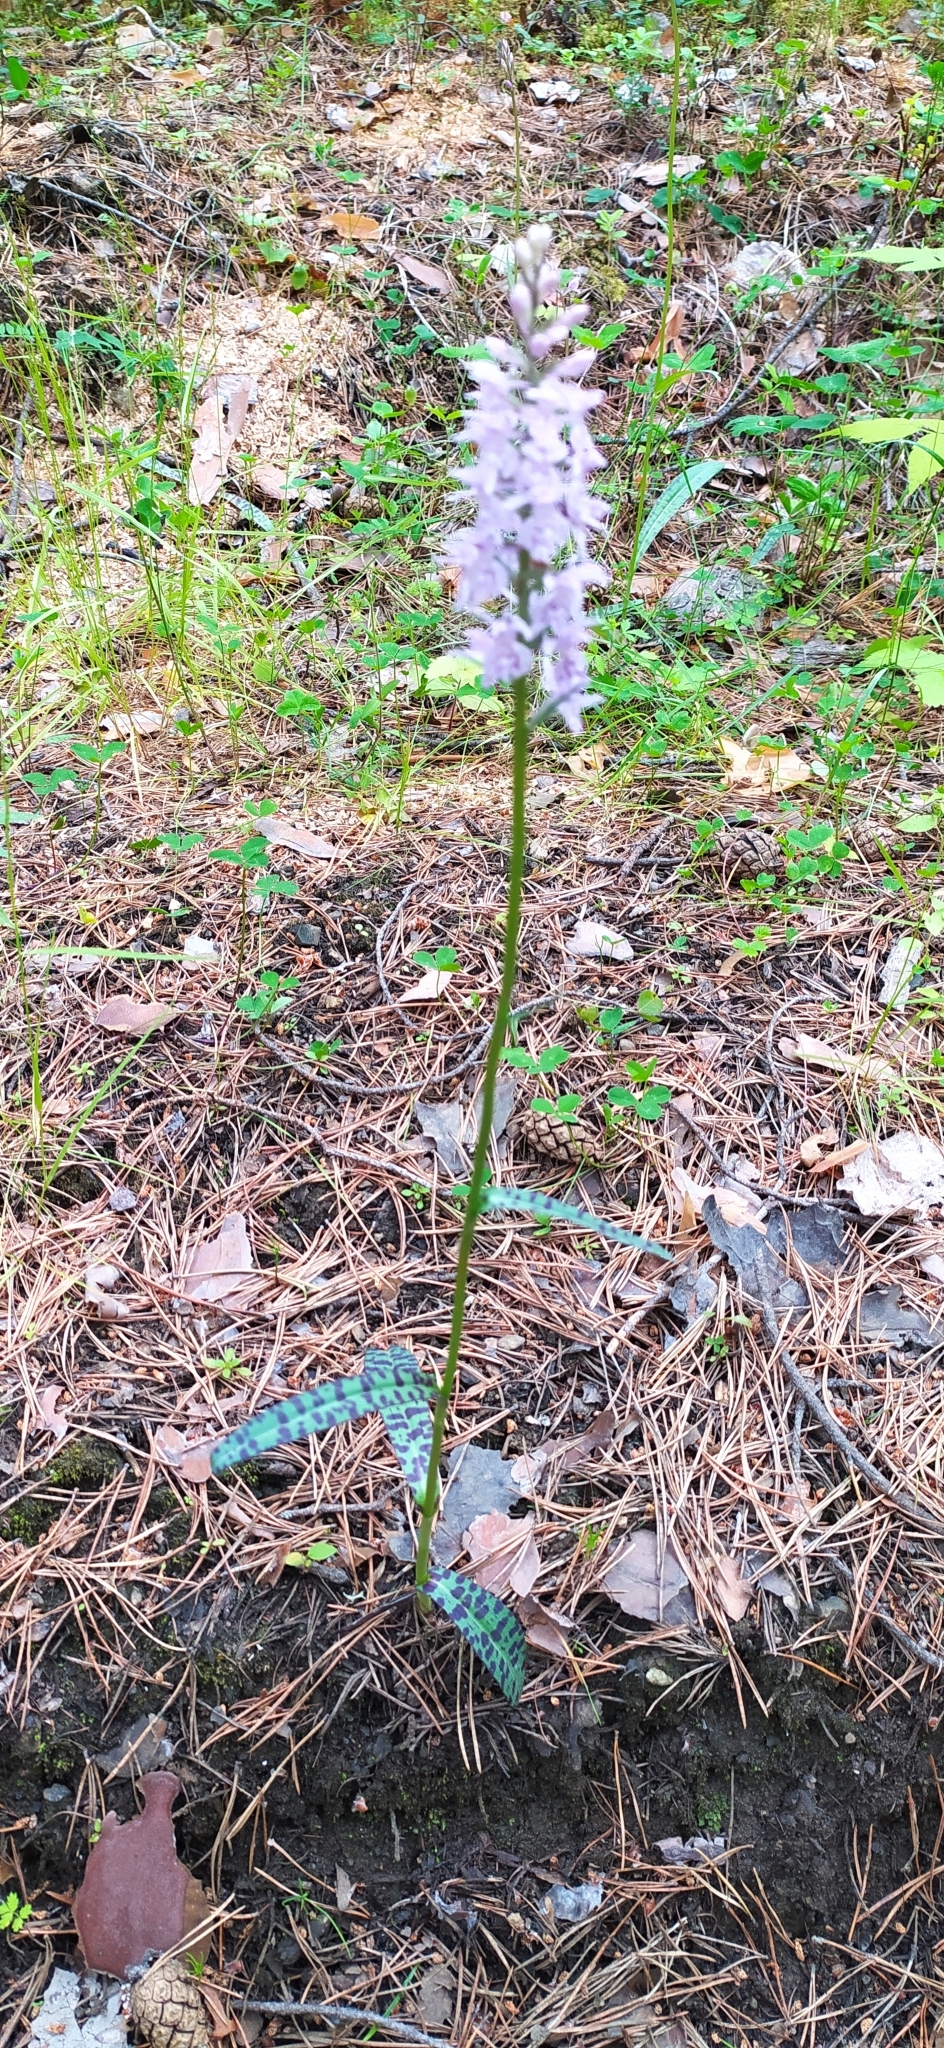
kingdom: Plantae
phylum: Tracheophyta
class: Liliopsida
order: Asparagales
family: Orchidaceae
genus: Dactylorhiza
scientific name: Dactylorhiza maculata
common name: Heath spotted-orchid
